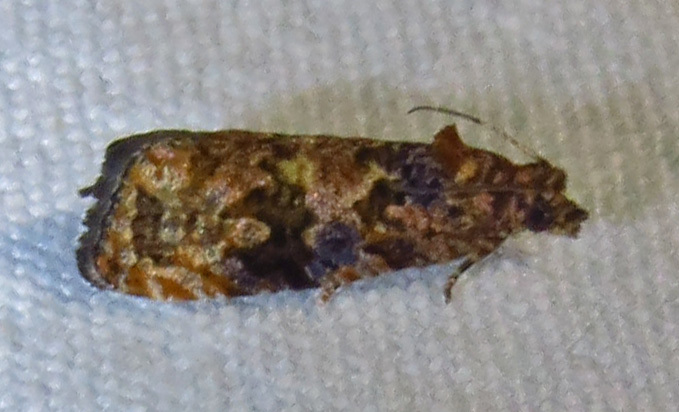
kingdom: Animalia
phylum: Arthropoda
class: Insecta
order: Lepidoptera
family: Tortricidae
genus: Endothenia
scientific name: Endothenia hebesana
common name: Verbena bud moth
